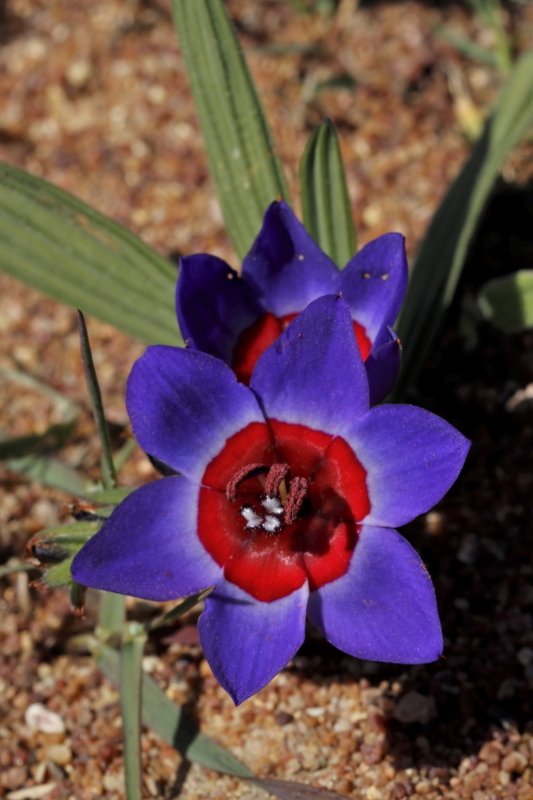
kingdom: Plantae
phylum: Tracheophyta
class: Liliopsida
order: Asparagales
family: Iridaceae
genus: Babiana
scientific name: Babiana rubrocyanea
